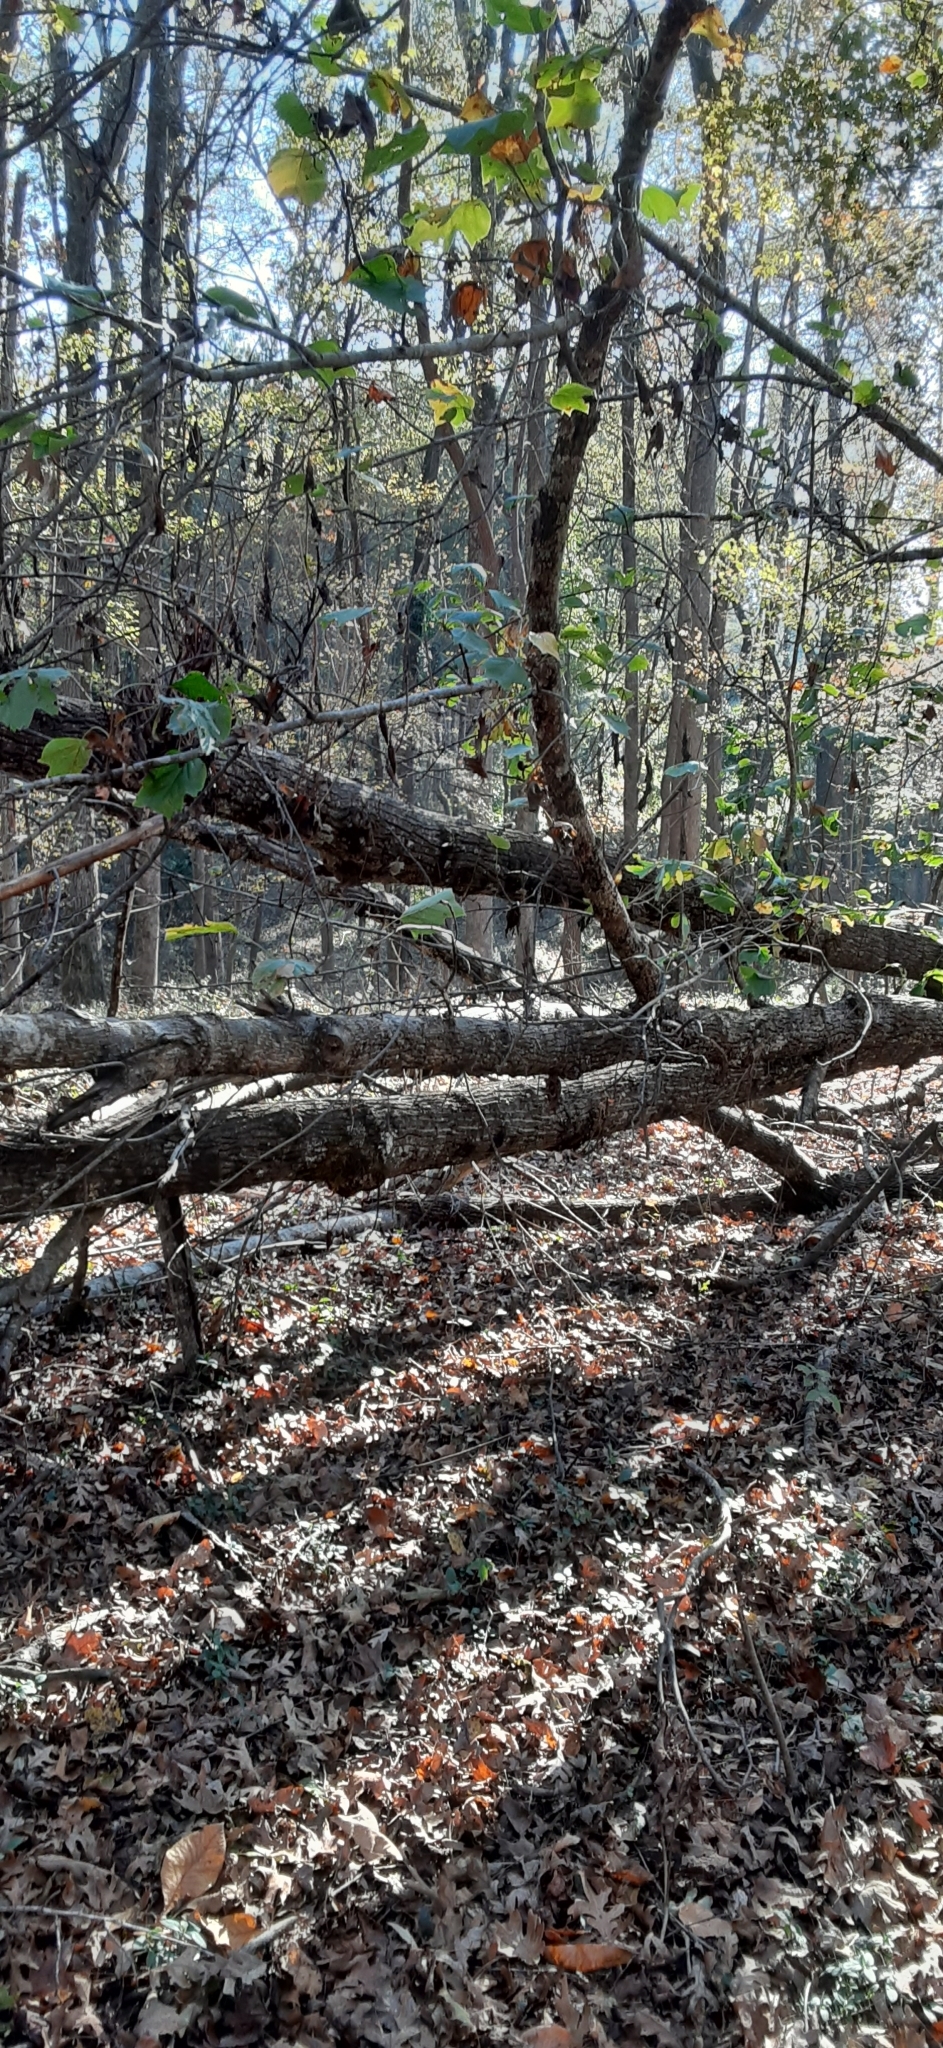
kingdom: Plantae
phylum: Tracheophyta
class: Magnoliopsida
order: Magnoliales
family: Magnoliaceae
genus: Liriodendron
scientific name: Liriodendron tulipifera
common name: Tulip tree
